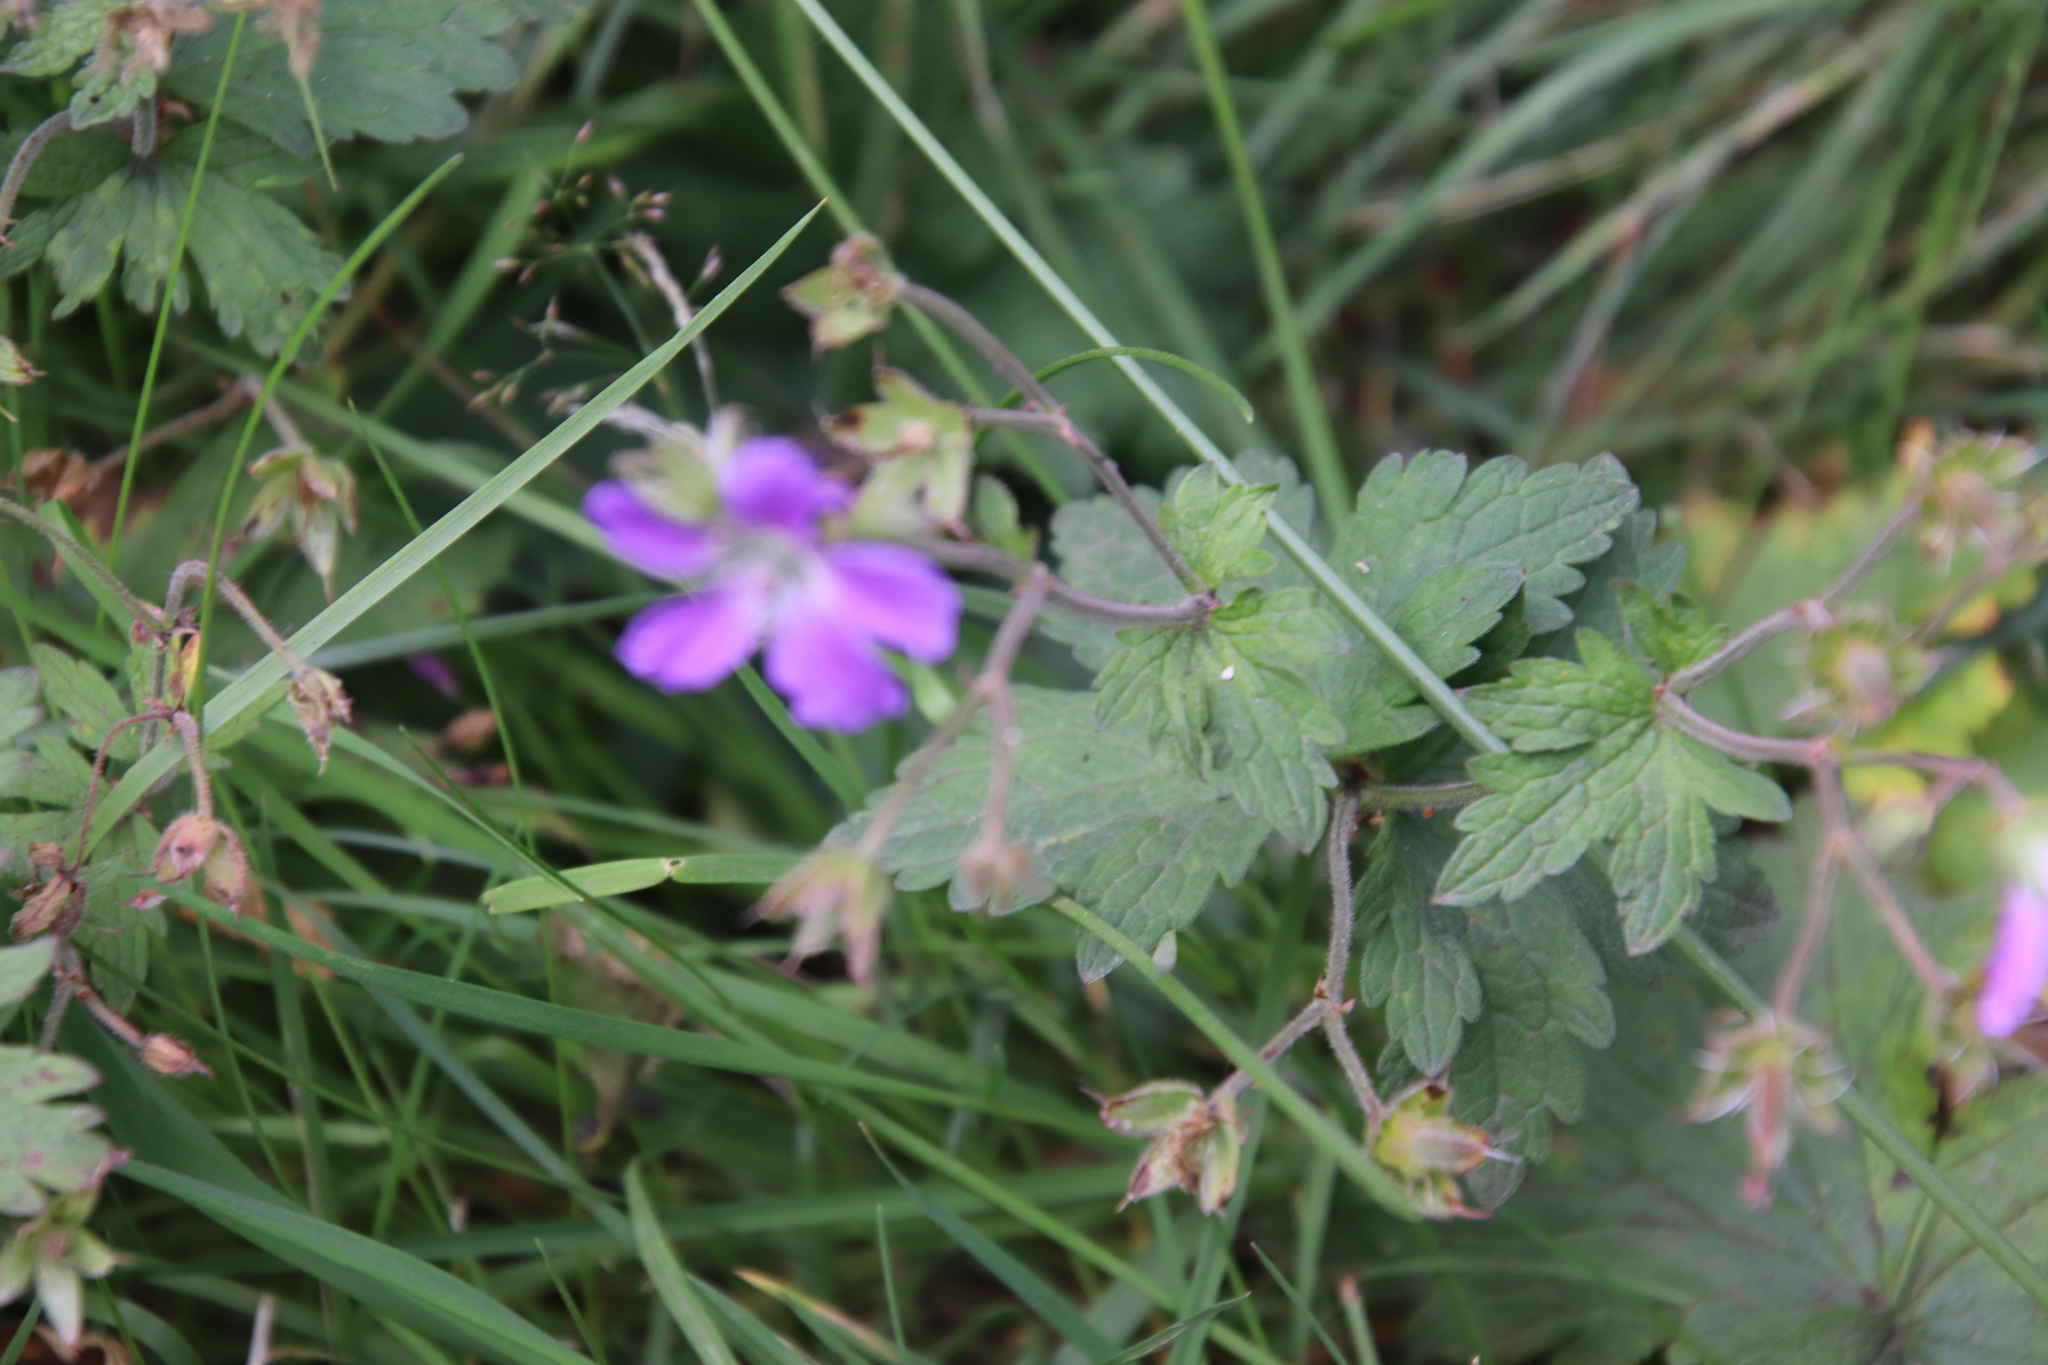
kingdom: Plantae
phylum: Tracheophyta
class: Magnoliopsida
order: Geraniales
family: Geraniaceae
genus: Geranium
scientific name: Geranium sylvaticum
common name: Wood crane's-bill
